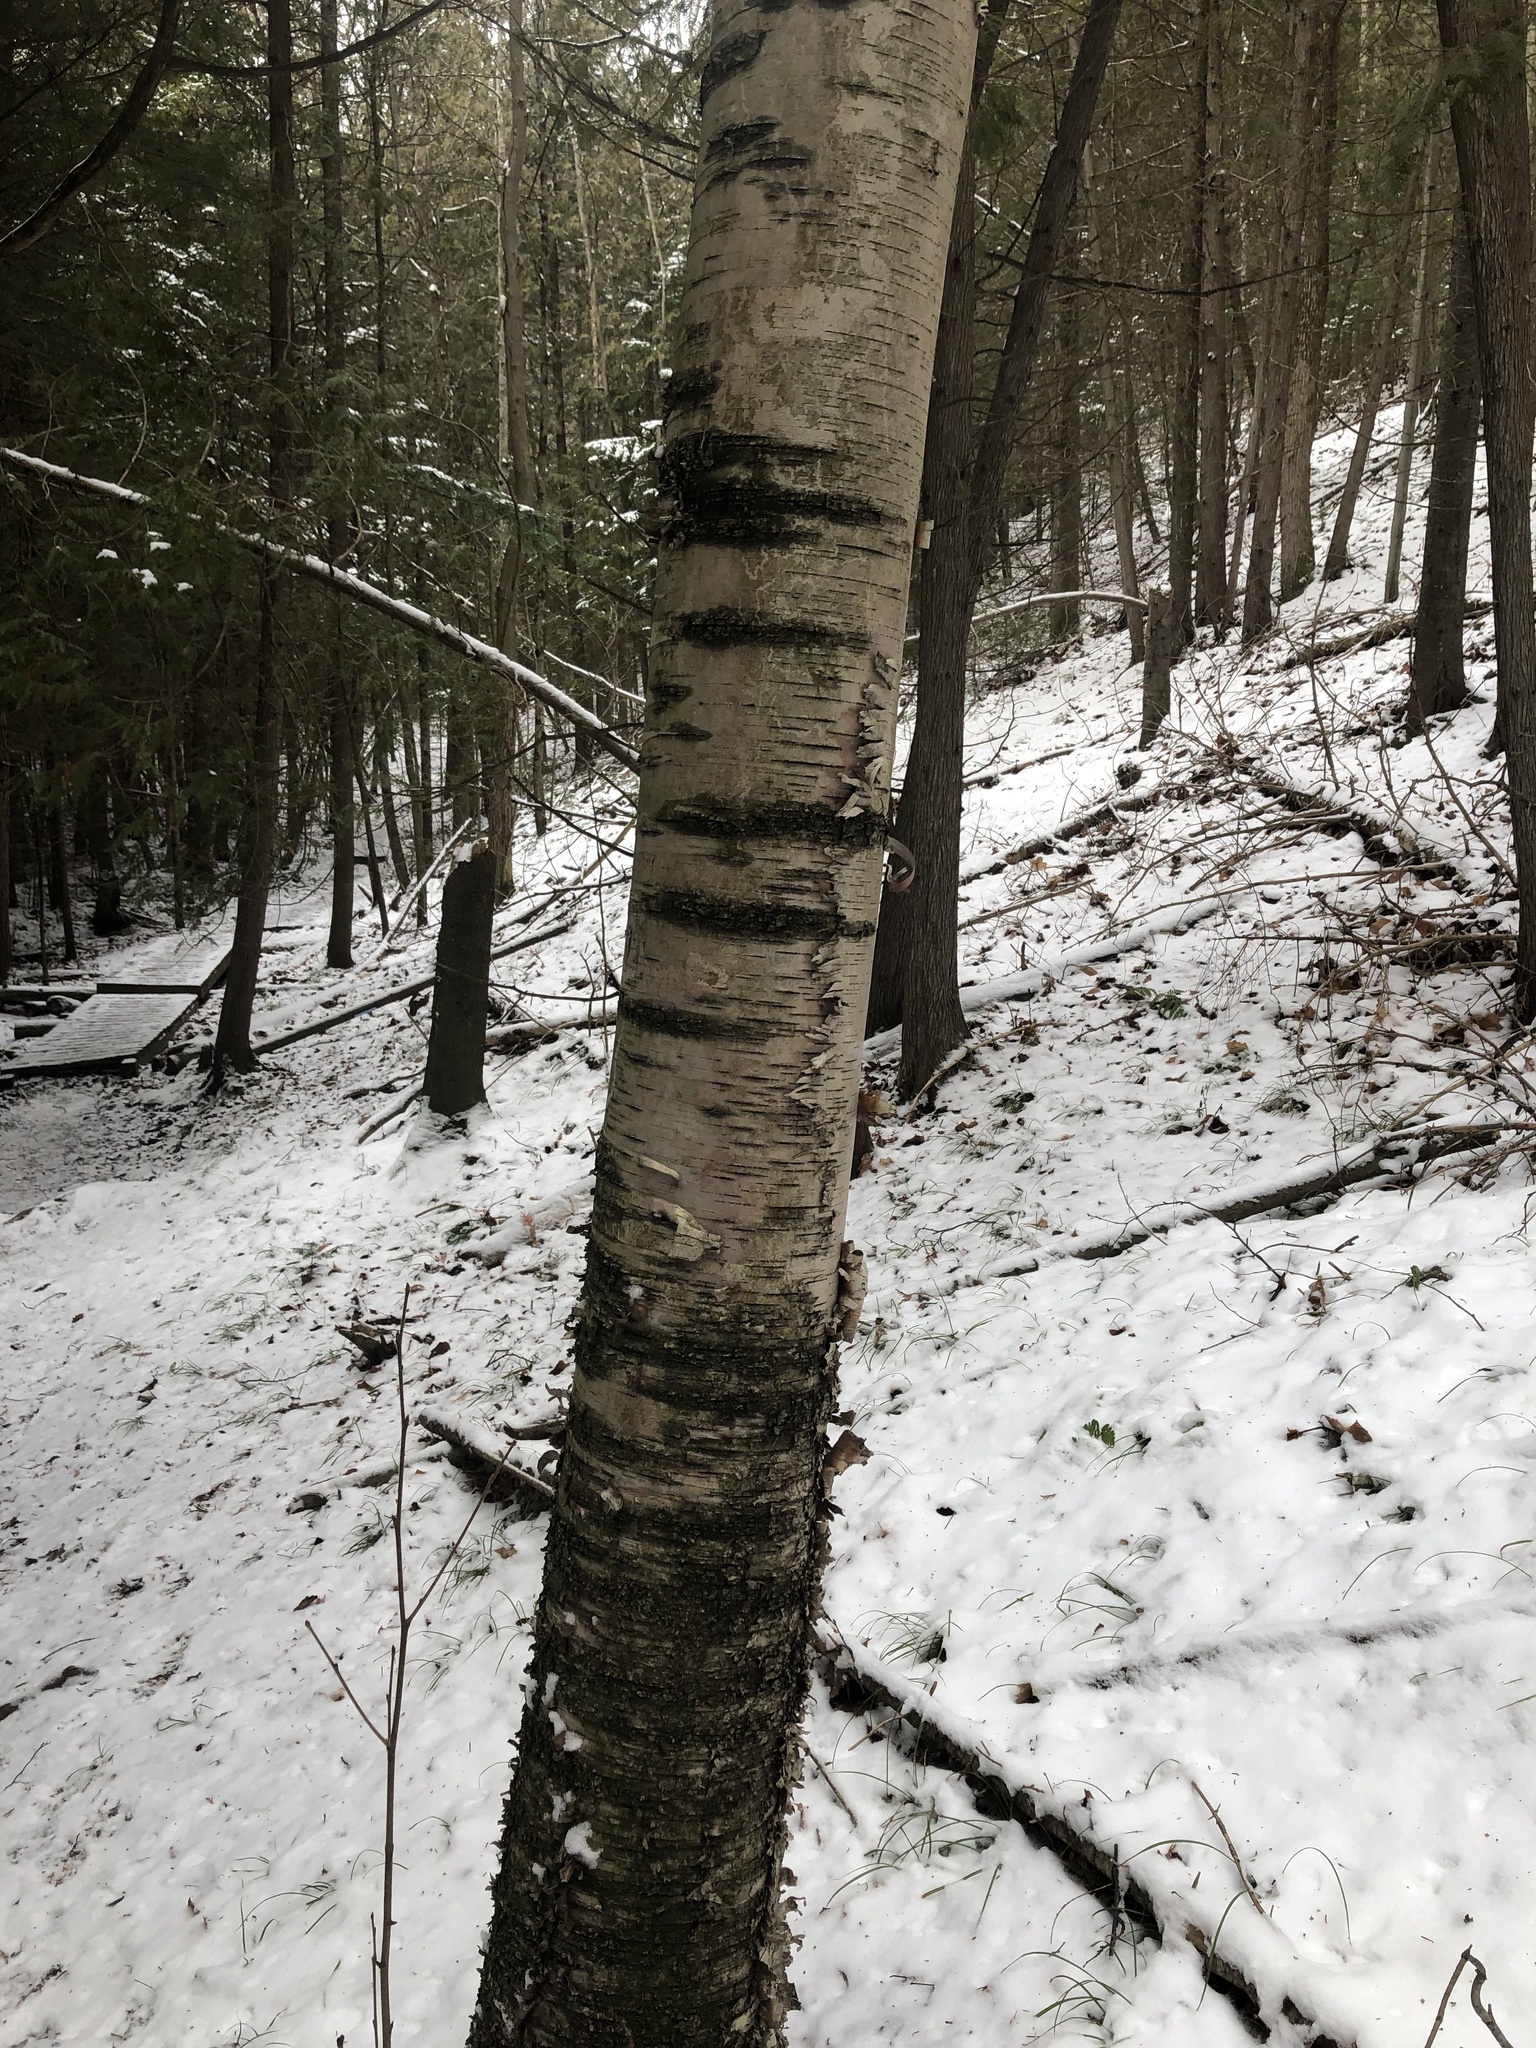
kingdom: Plantae
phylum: Tracheophyta
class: Magnoliopsida
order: Fagales
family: Betulaceae
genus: Betula
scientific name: Betula papyrifera
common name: Paper birch
